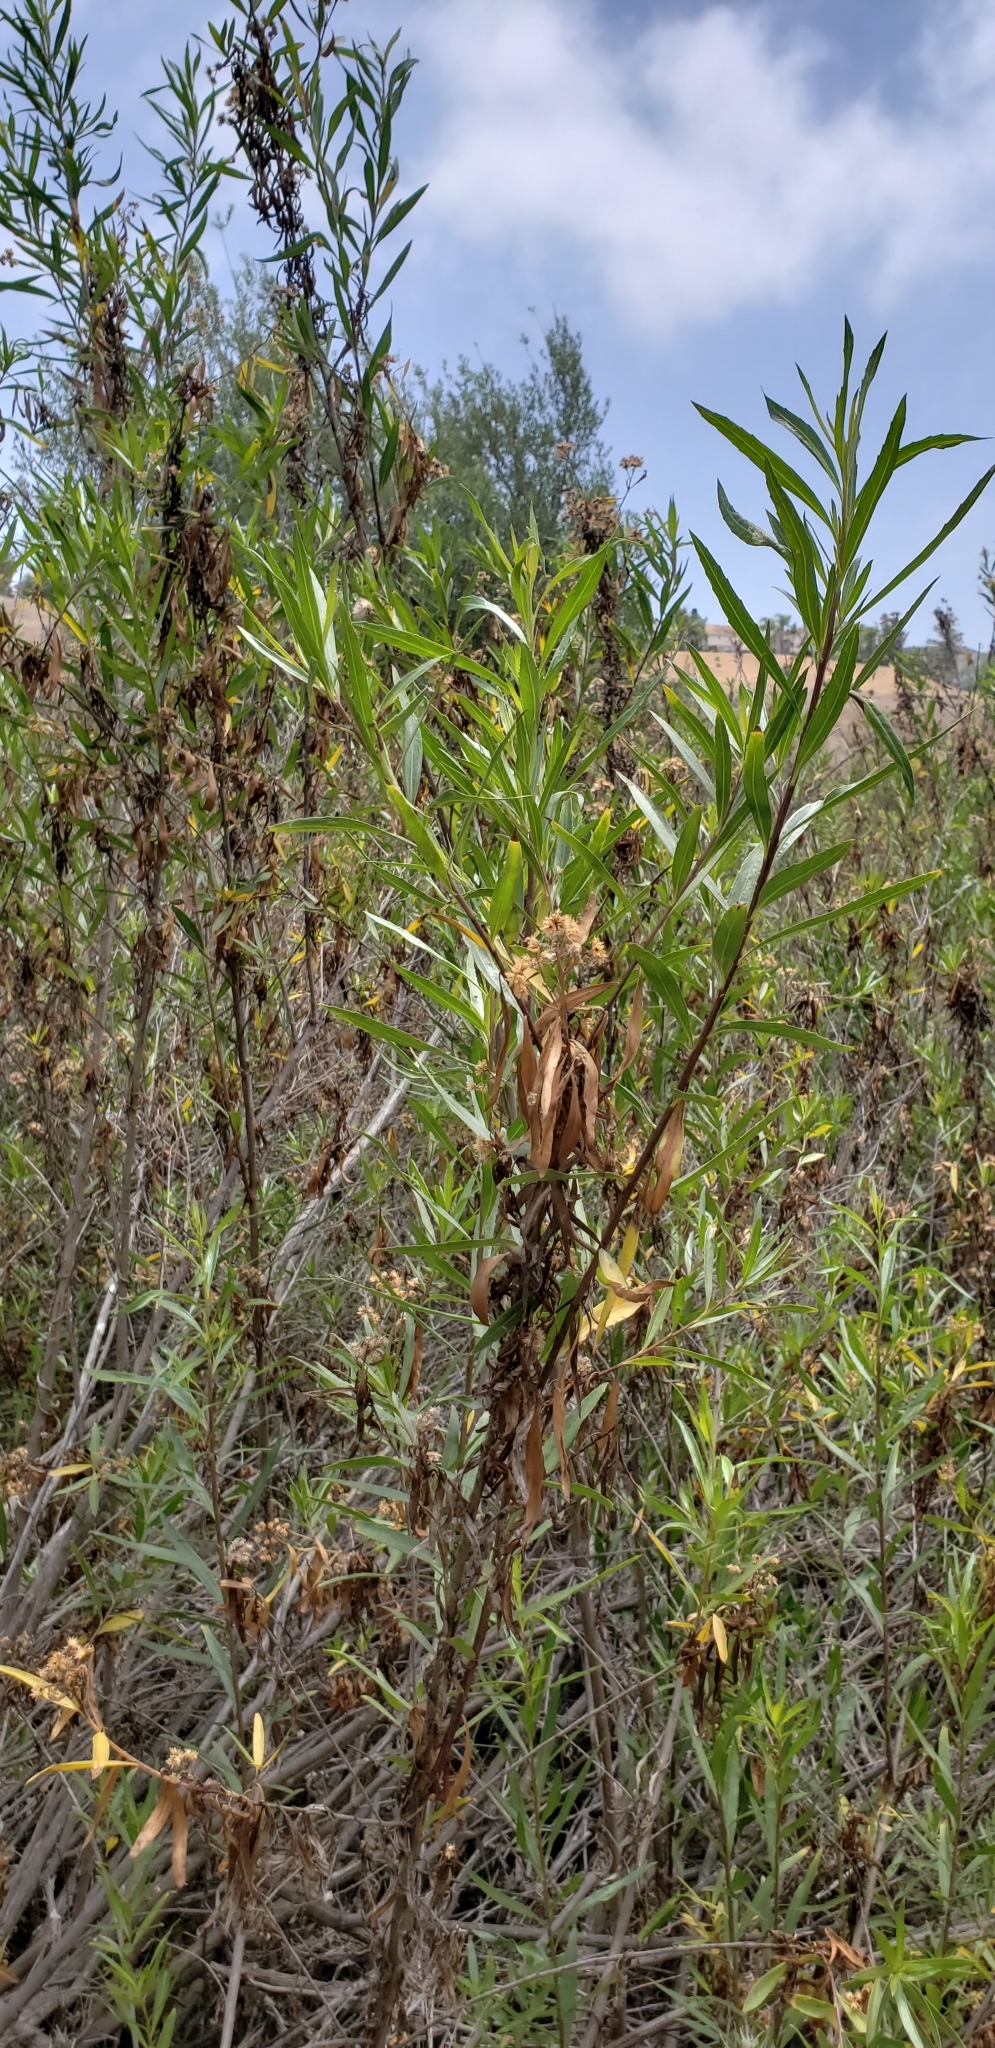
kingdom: Plantae
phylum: Tracheophyta
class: Magnoliopsida
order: Asterales
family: Asteraceae
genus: Baccharis
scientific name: Baccharis salicifolia
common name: Sticky baccharis
